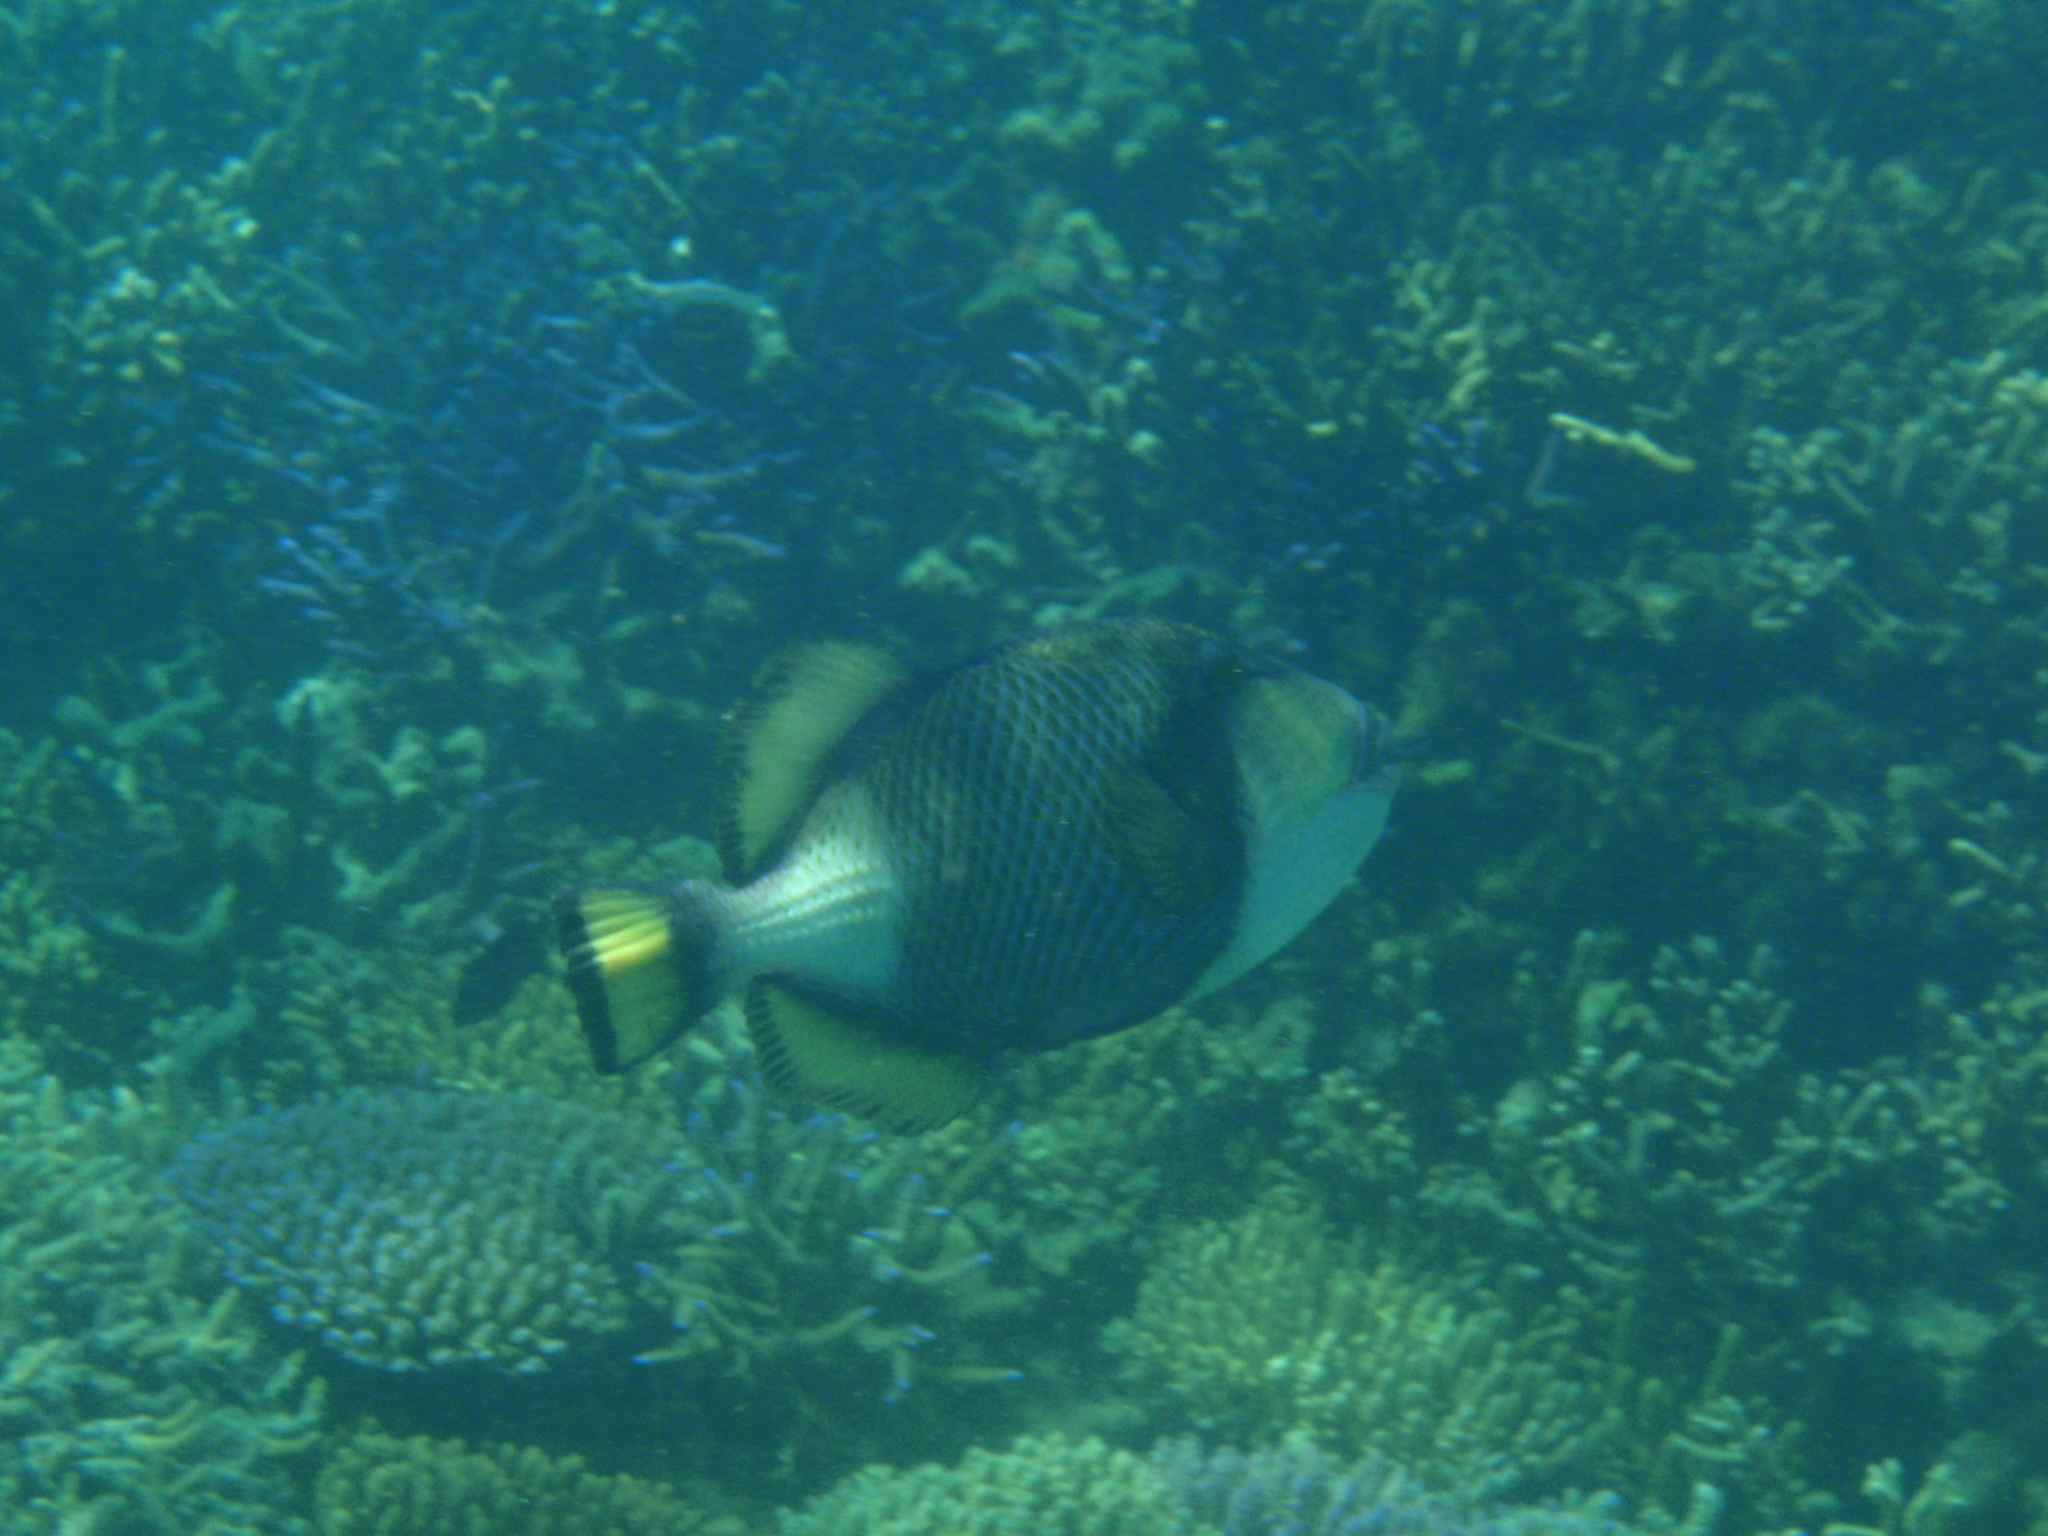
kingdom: Animalia
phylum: Chordata
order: Tetraodontiformes
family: Balistidae
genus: Balistoides
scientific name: Balistoides viridescens
